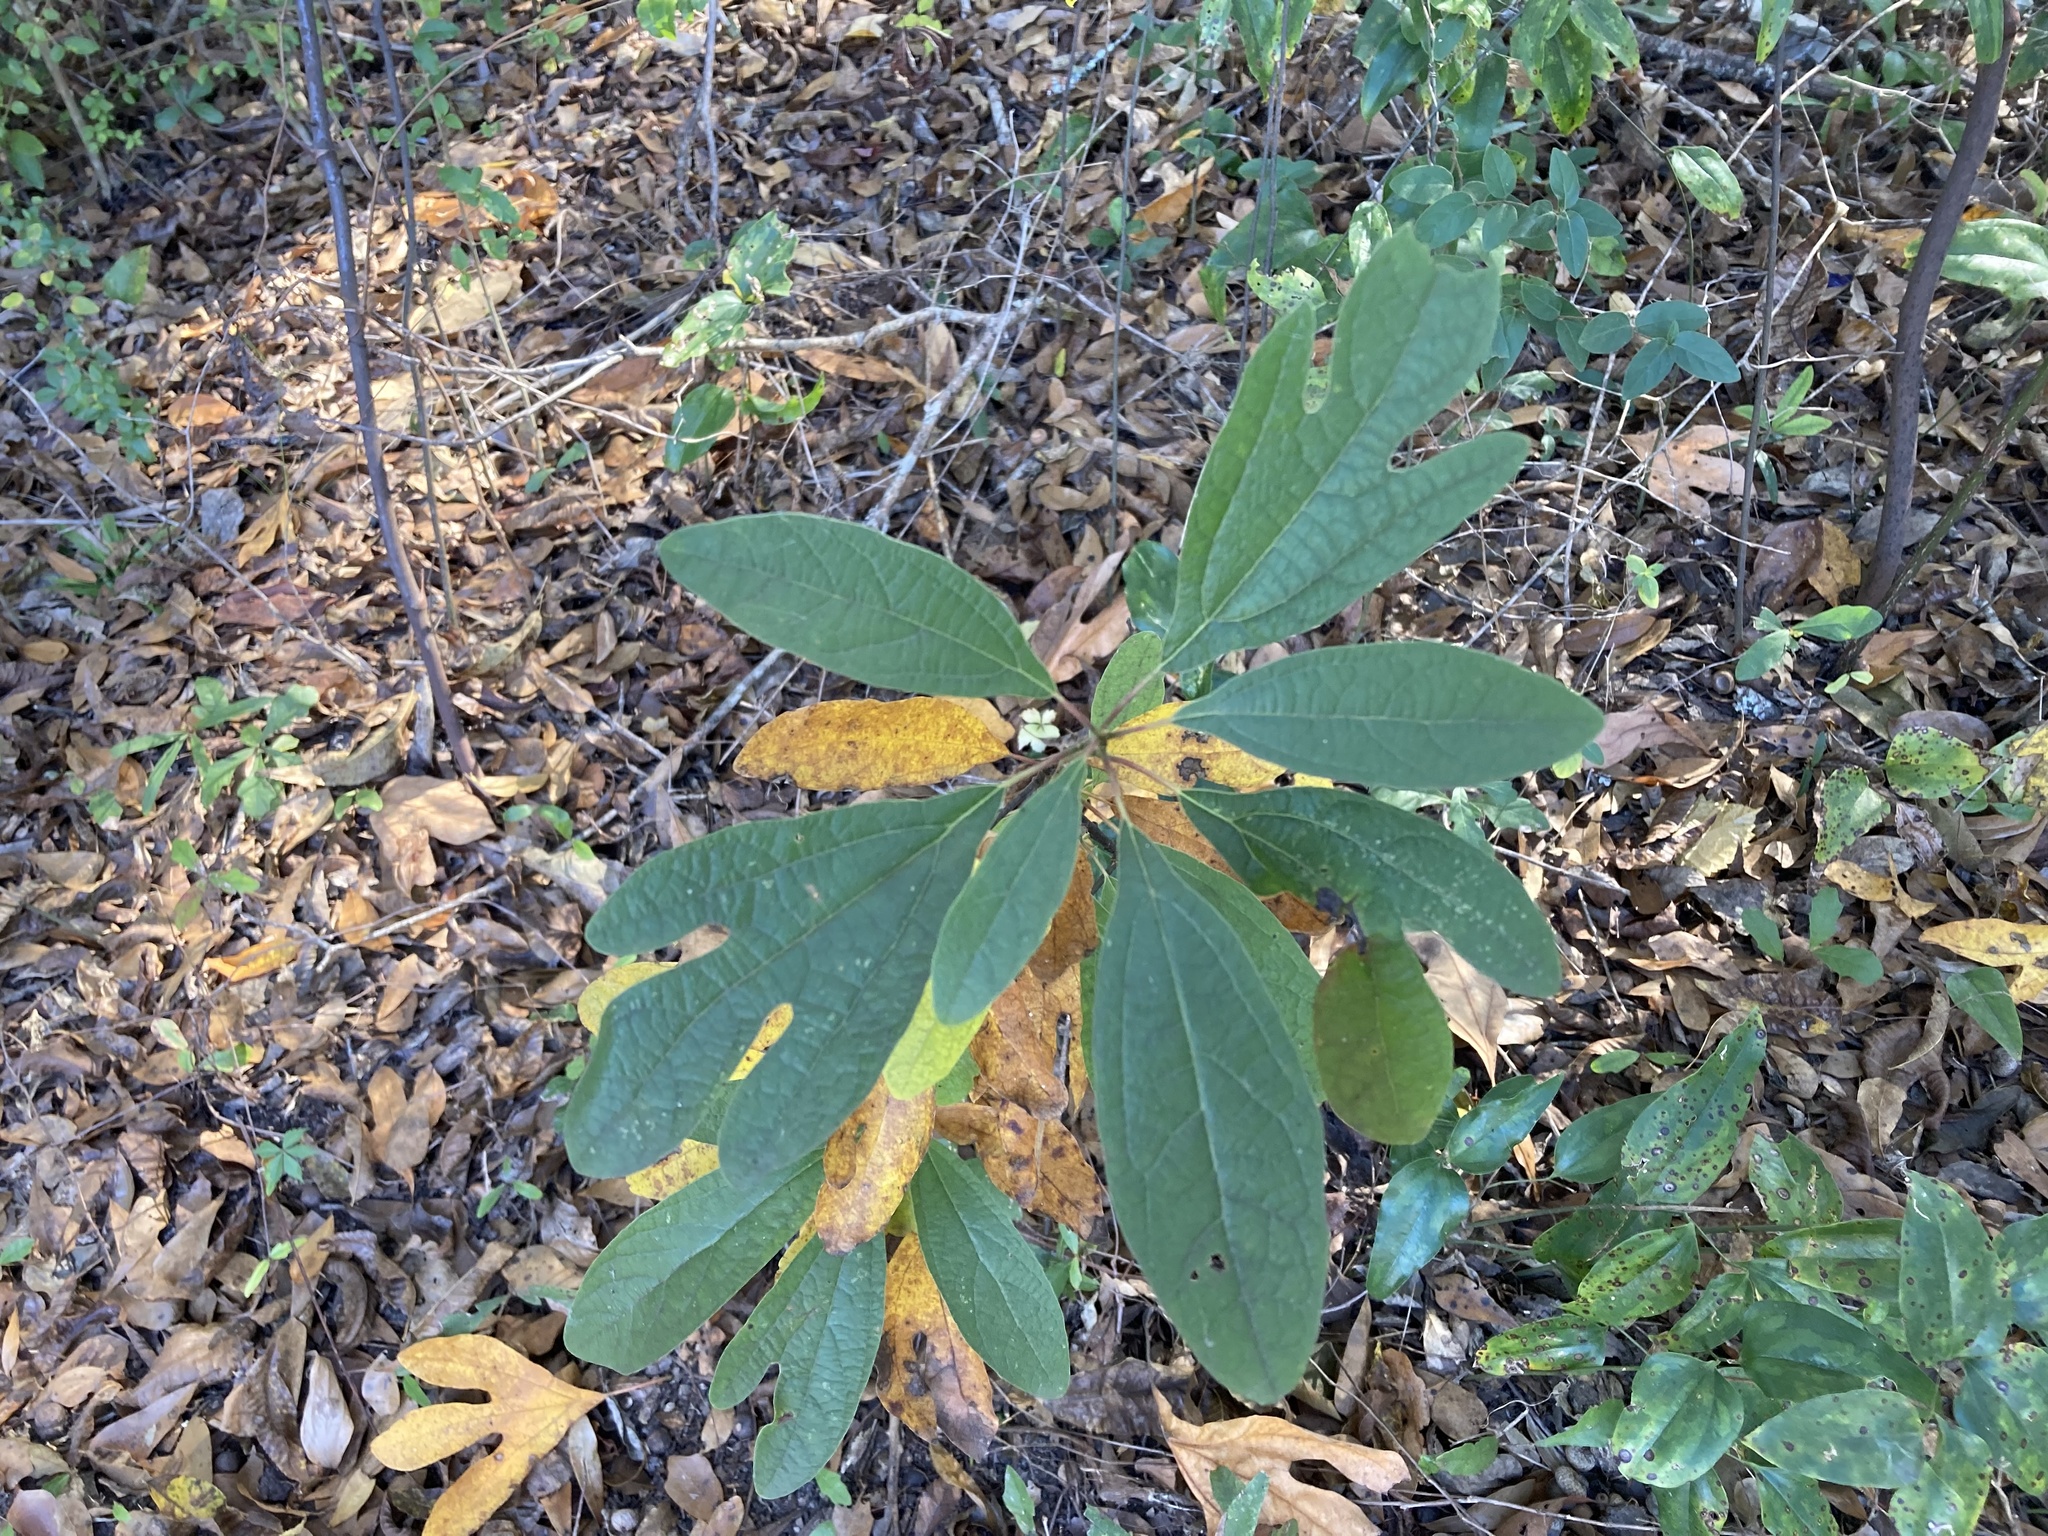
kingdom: Plantae
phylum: Tracheophyta
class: Magnoliopsida
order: Laurales
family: Lauraceae
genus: Sassafras
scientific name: Sassafras albidum
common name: Sassafras
